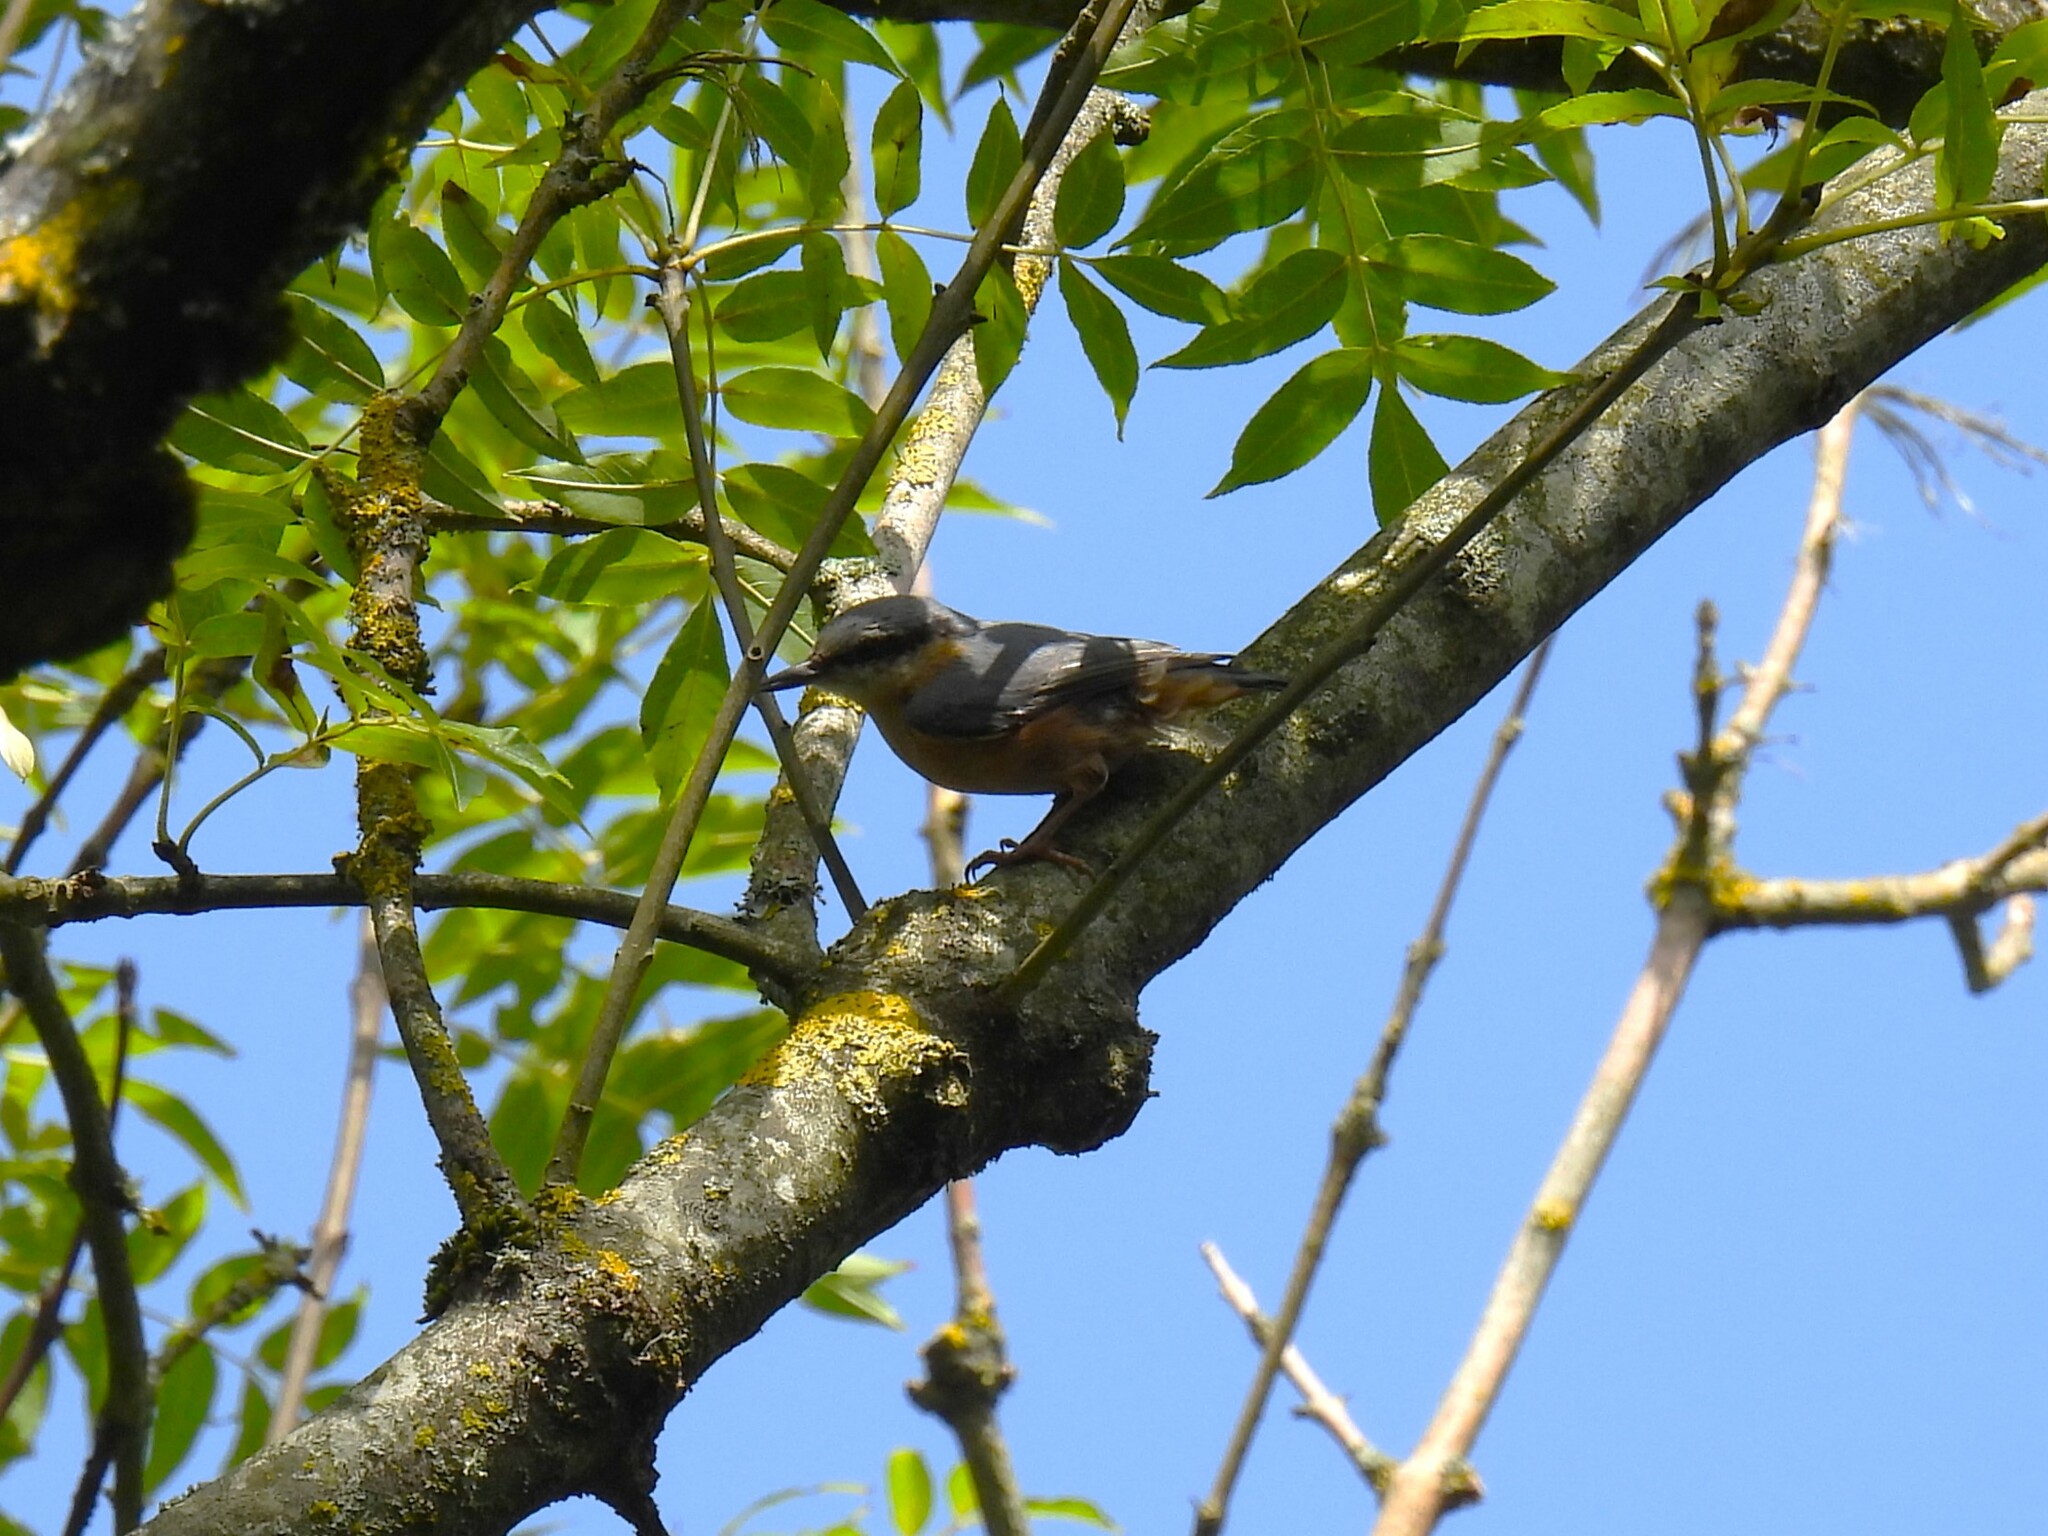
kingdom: Animalia
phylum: Chordata
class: Aves
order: Passeriformes
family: Sittidae
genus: Sitta
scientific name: Sitta europaea
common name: Eurasian nuthatch
